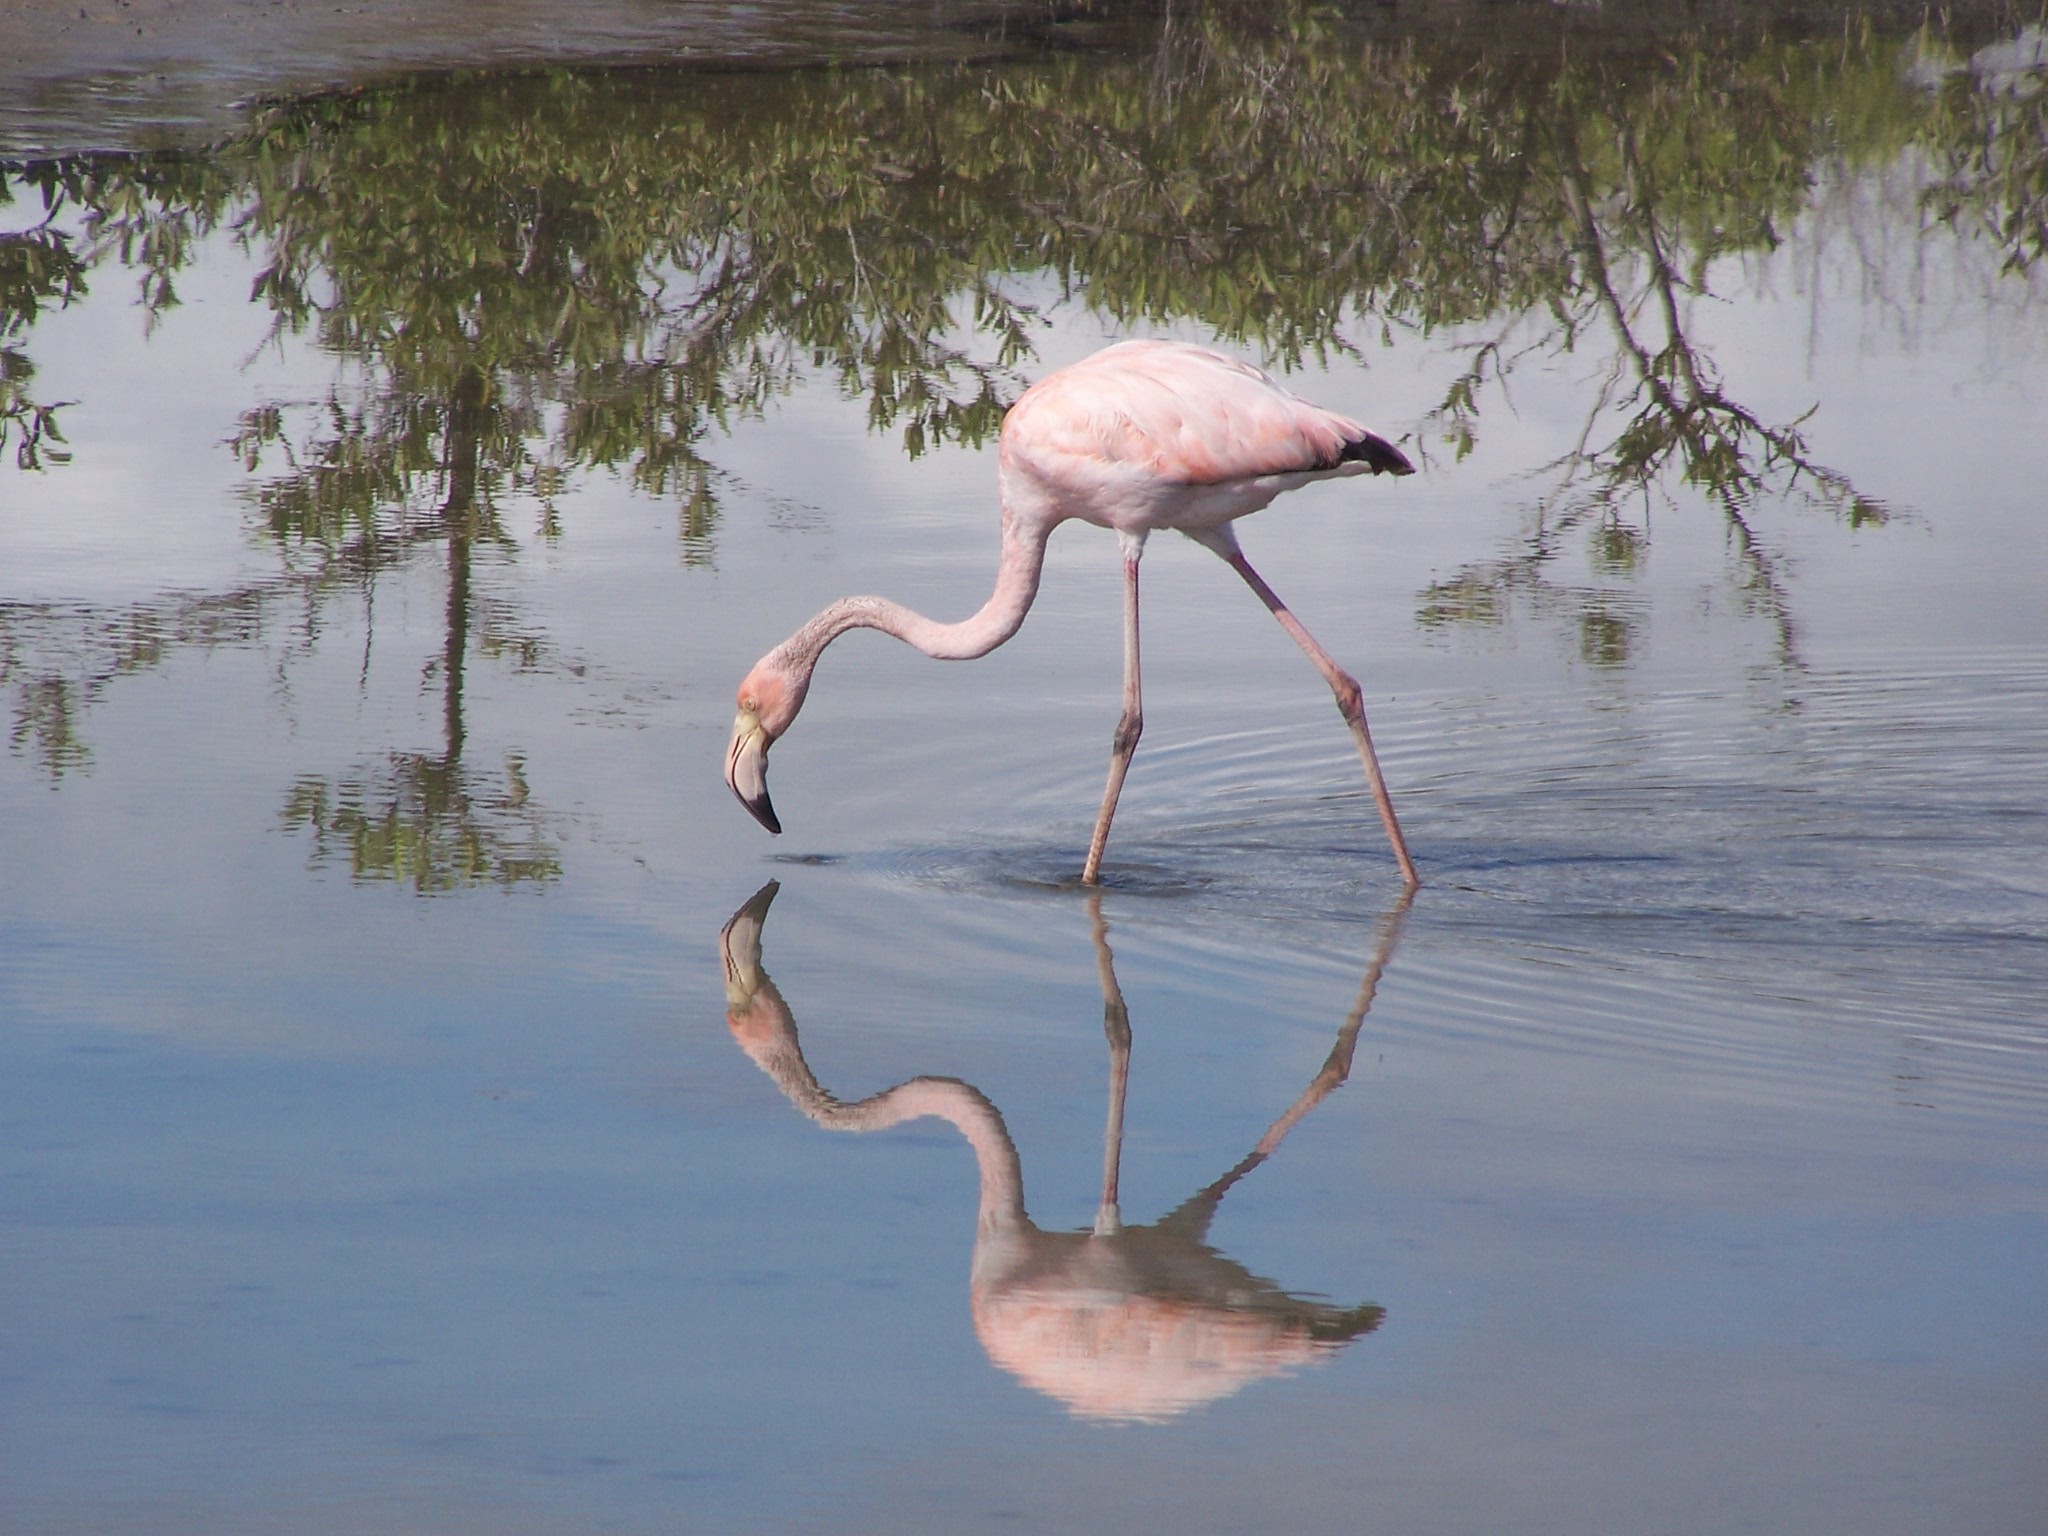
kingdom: Animalia
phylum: Chordata
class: Aves
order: Phoenicopteriformes
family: Phoenicopteridae
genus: Phoenicopterus
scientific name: Phoenicopterus ruber
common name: American flamingo
